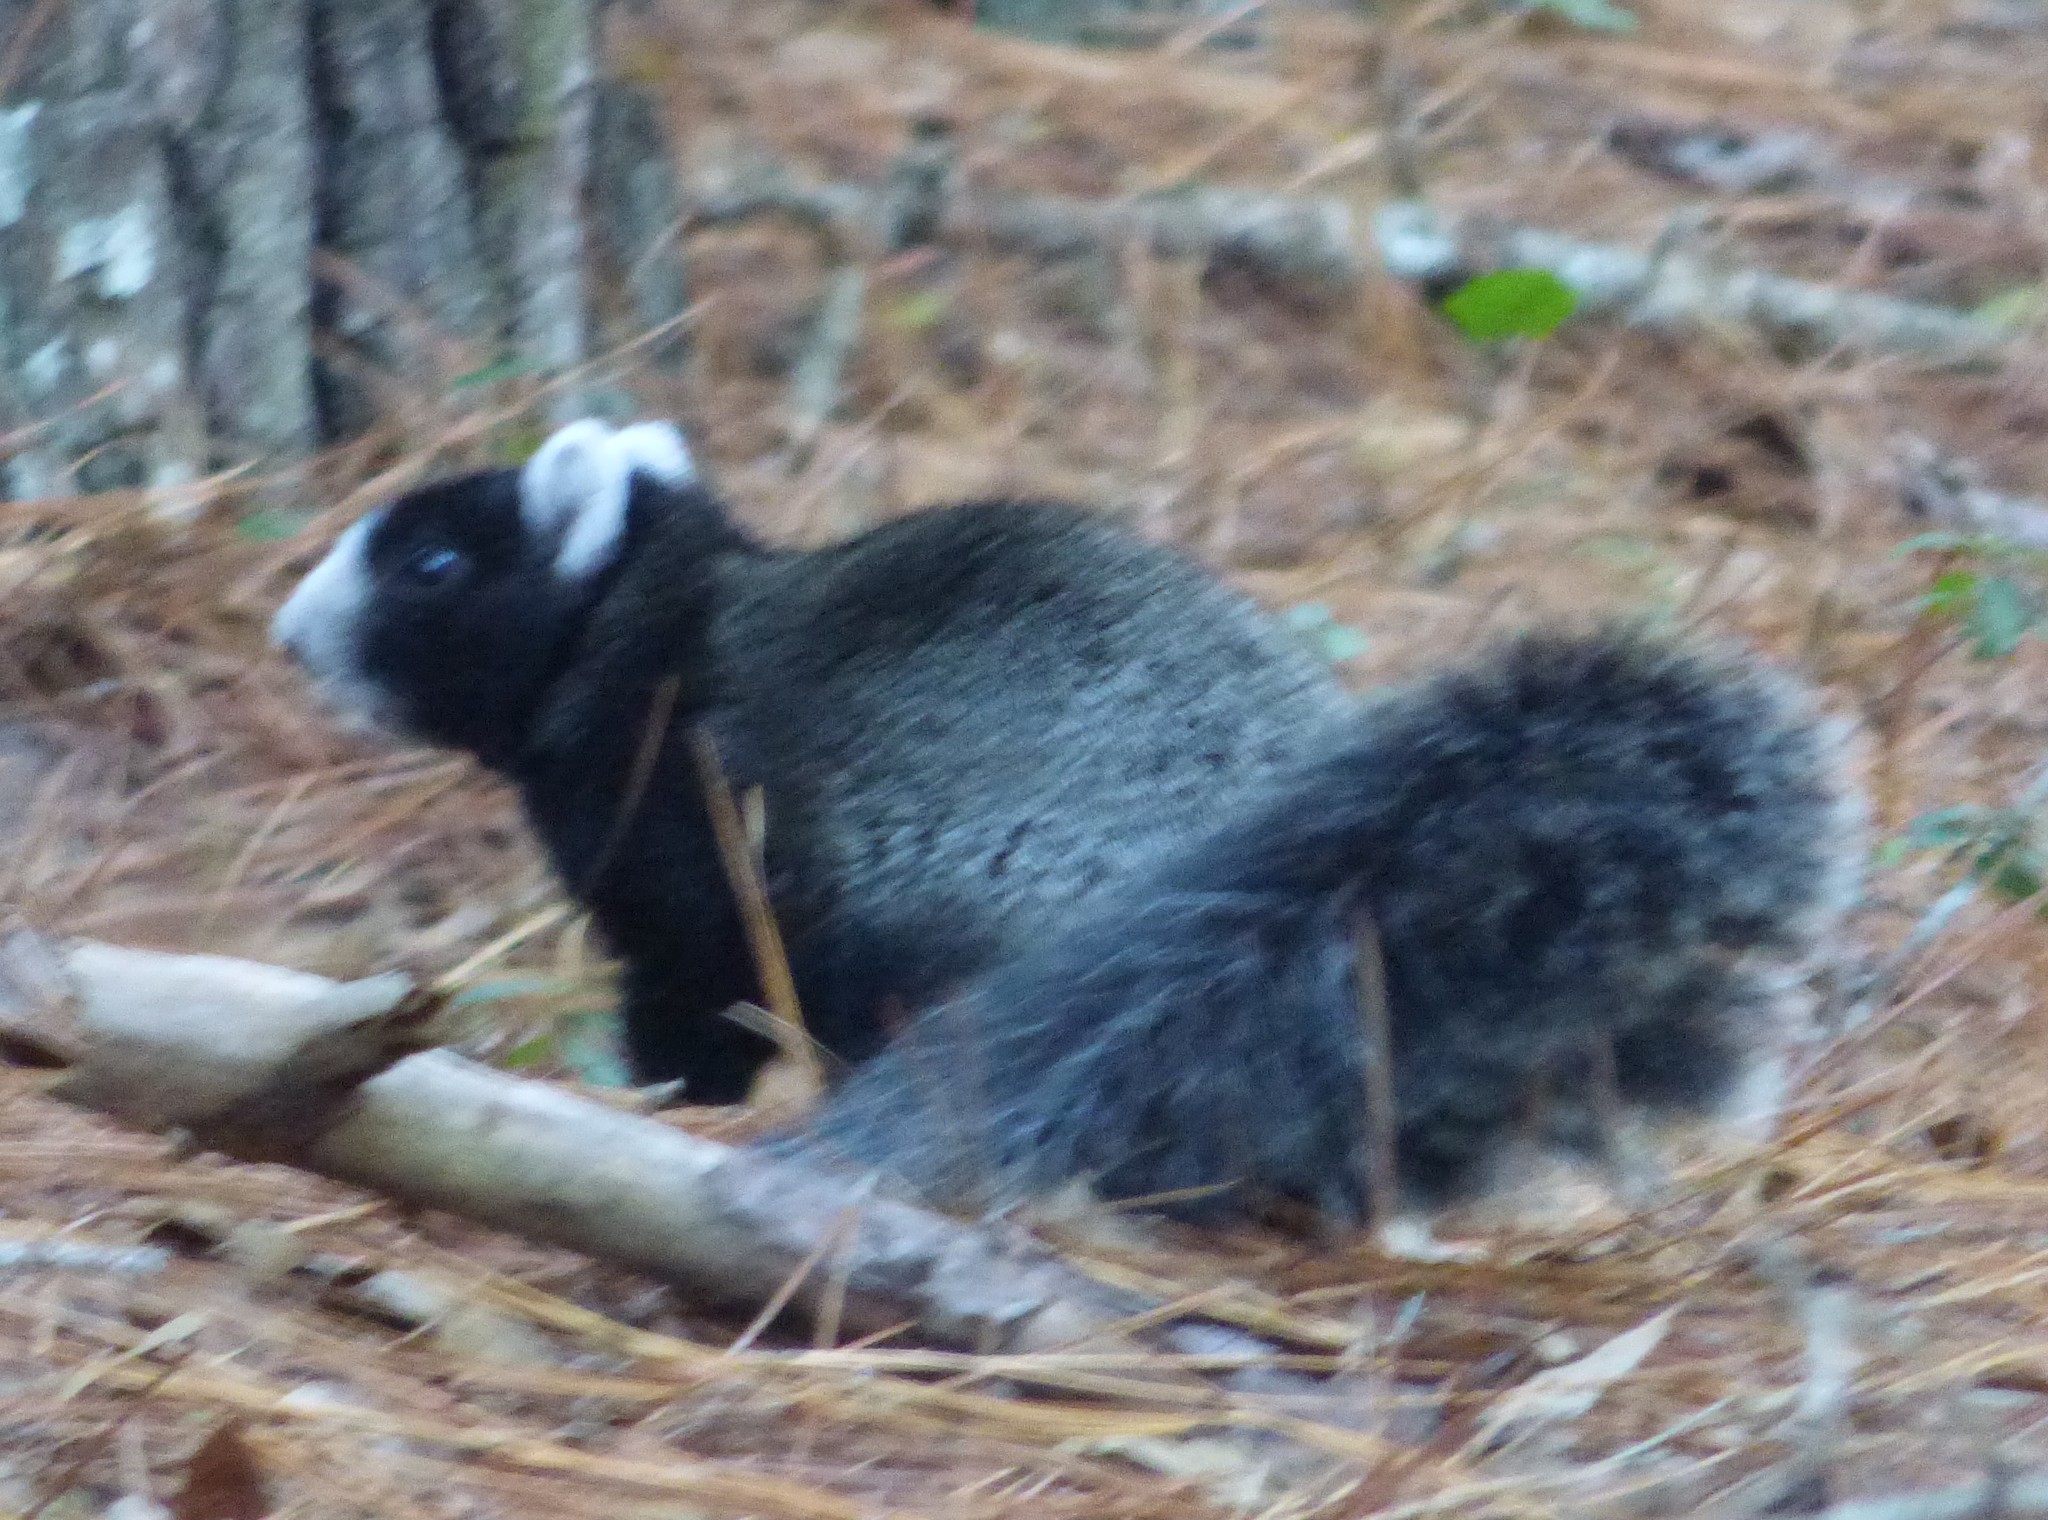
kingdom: Animalia
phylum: Chordata
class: Mammalia
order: Rodentia
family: Sciuridae
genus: Sciurus
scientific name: Sciurus niger
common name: Fox squirrel
